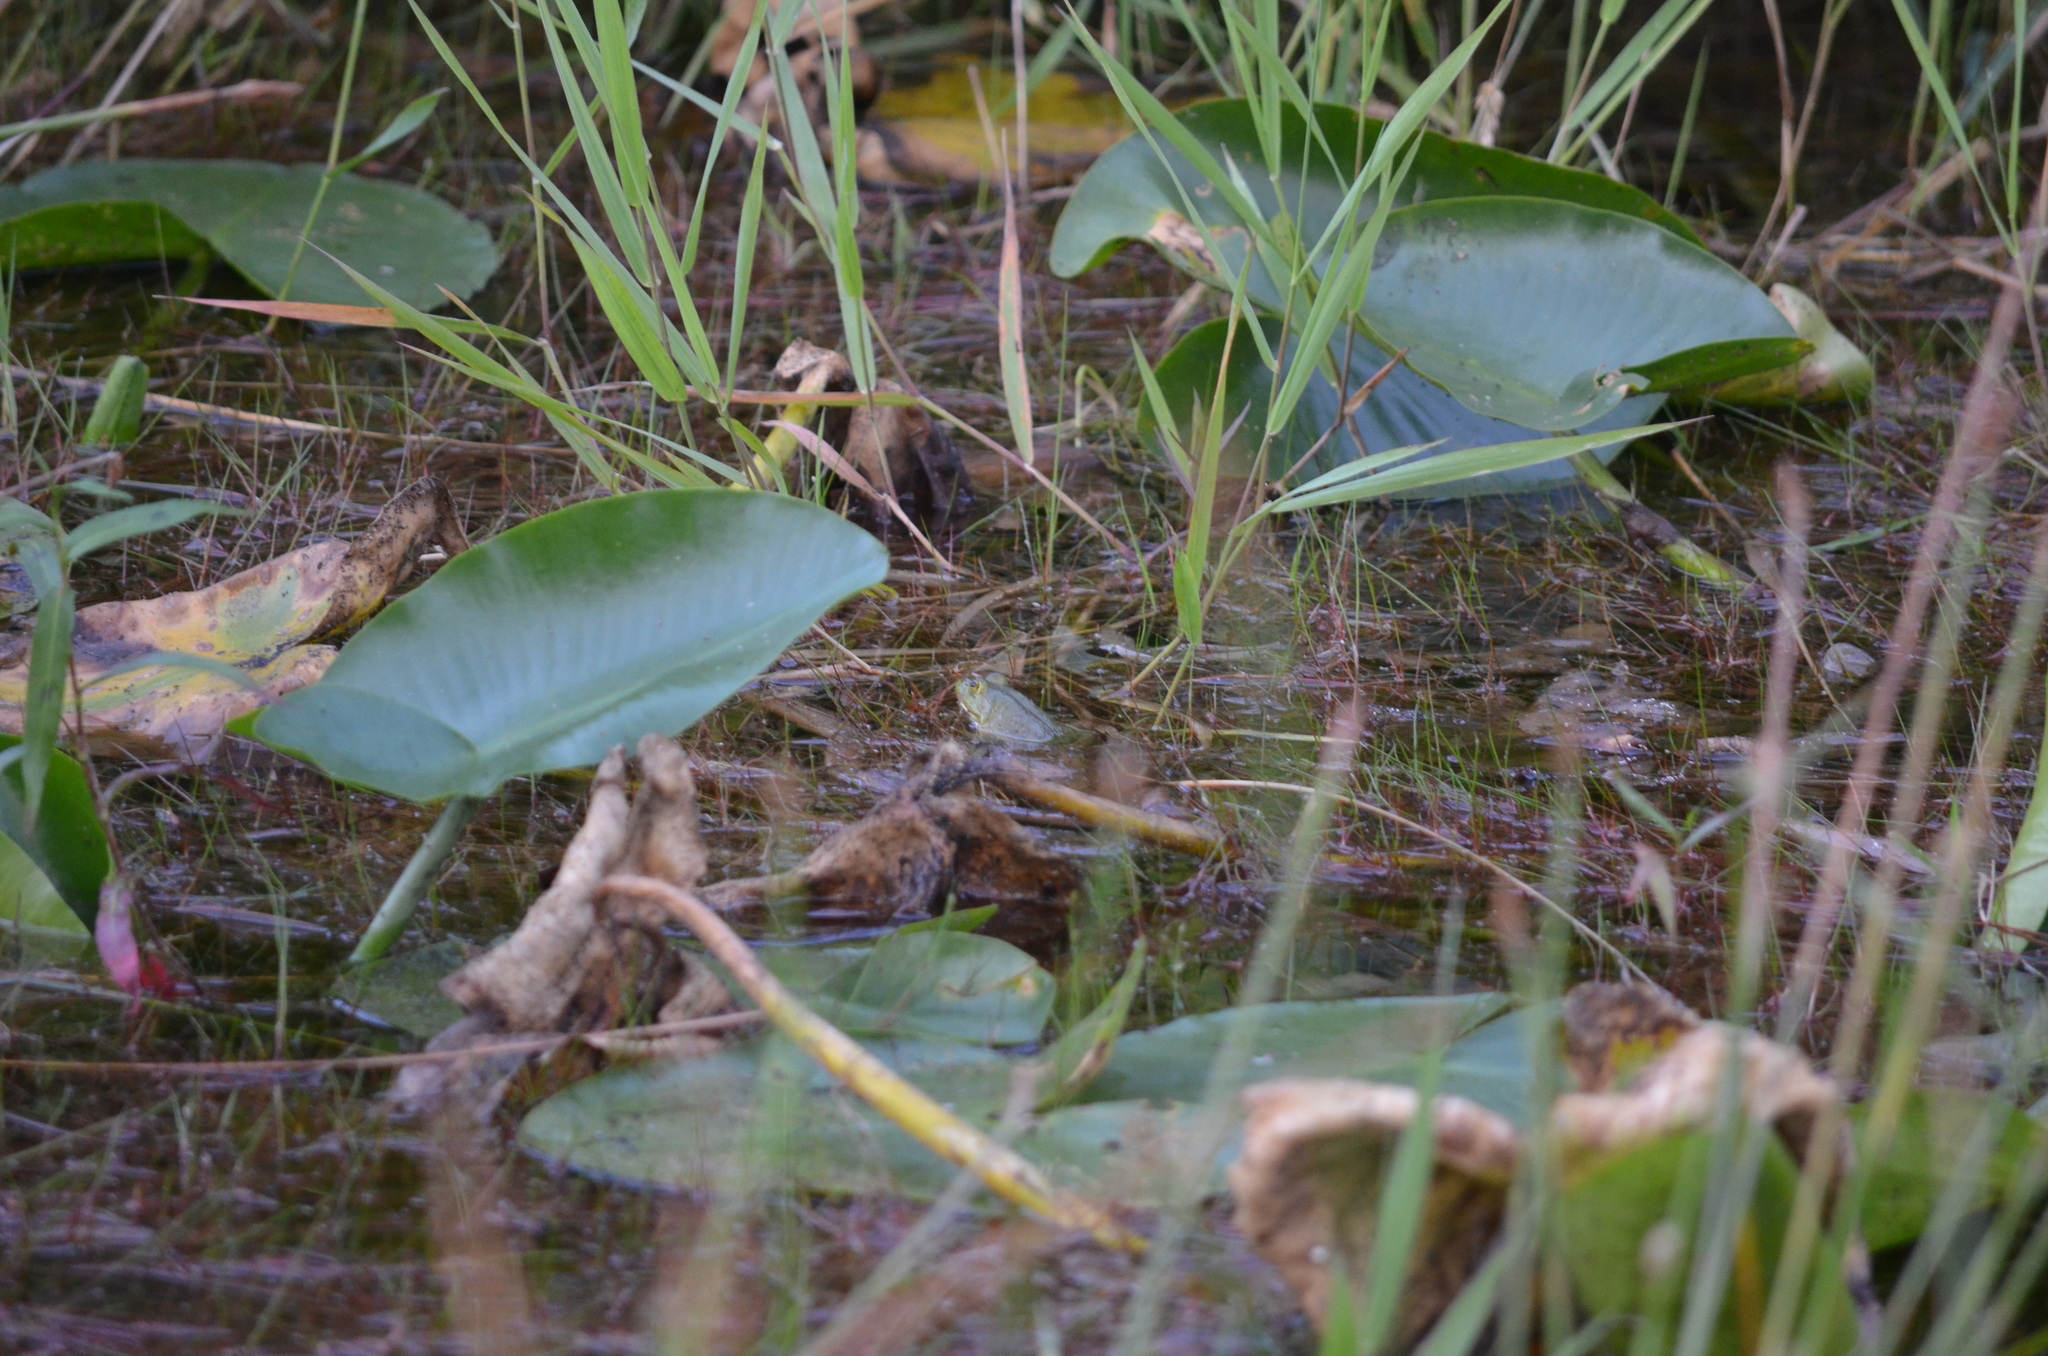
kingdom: Animalia
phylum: Chordata
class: Amphibia
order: Anura
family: Ranidae
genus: Lithobates
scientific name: Lithobates catesbeianus
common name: American bullfrog
